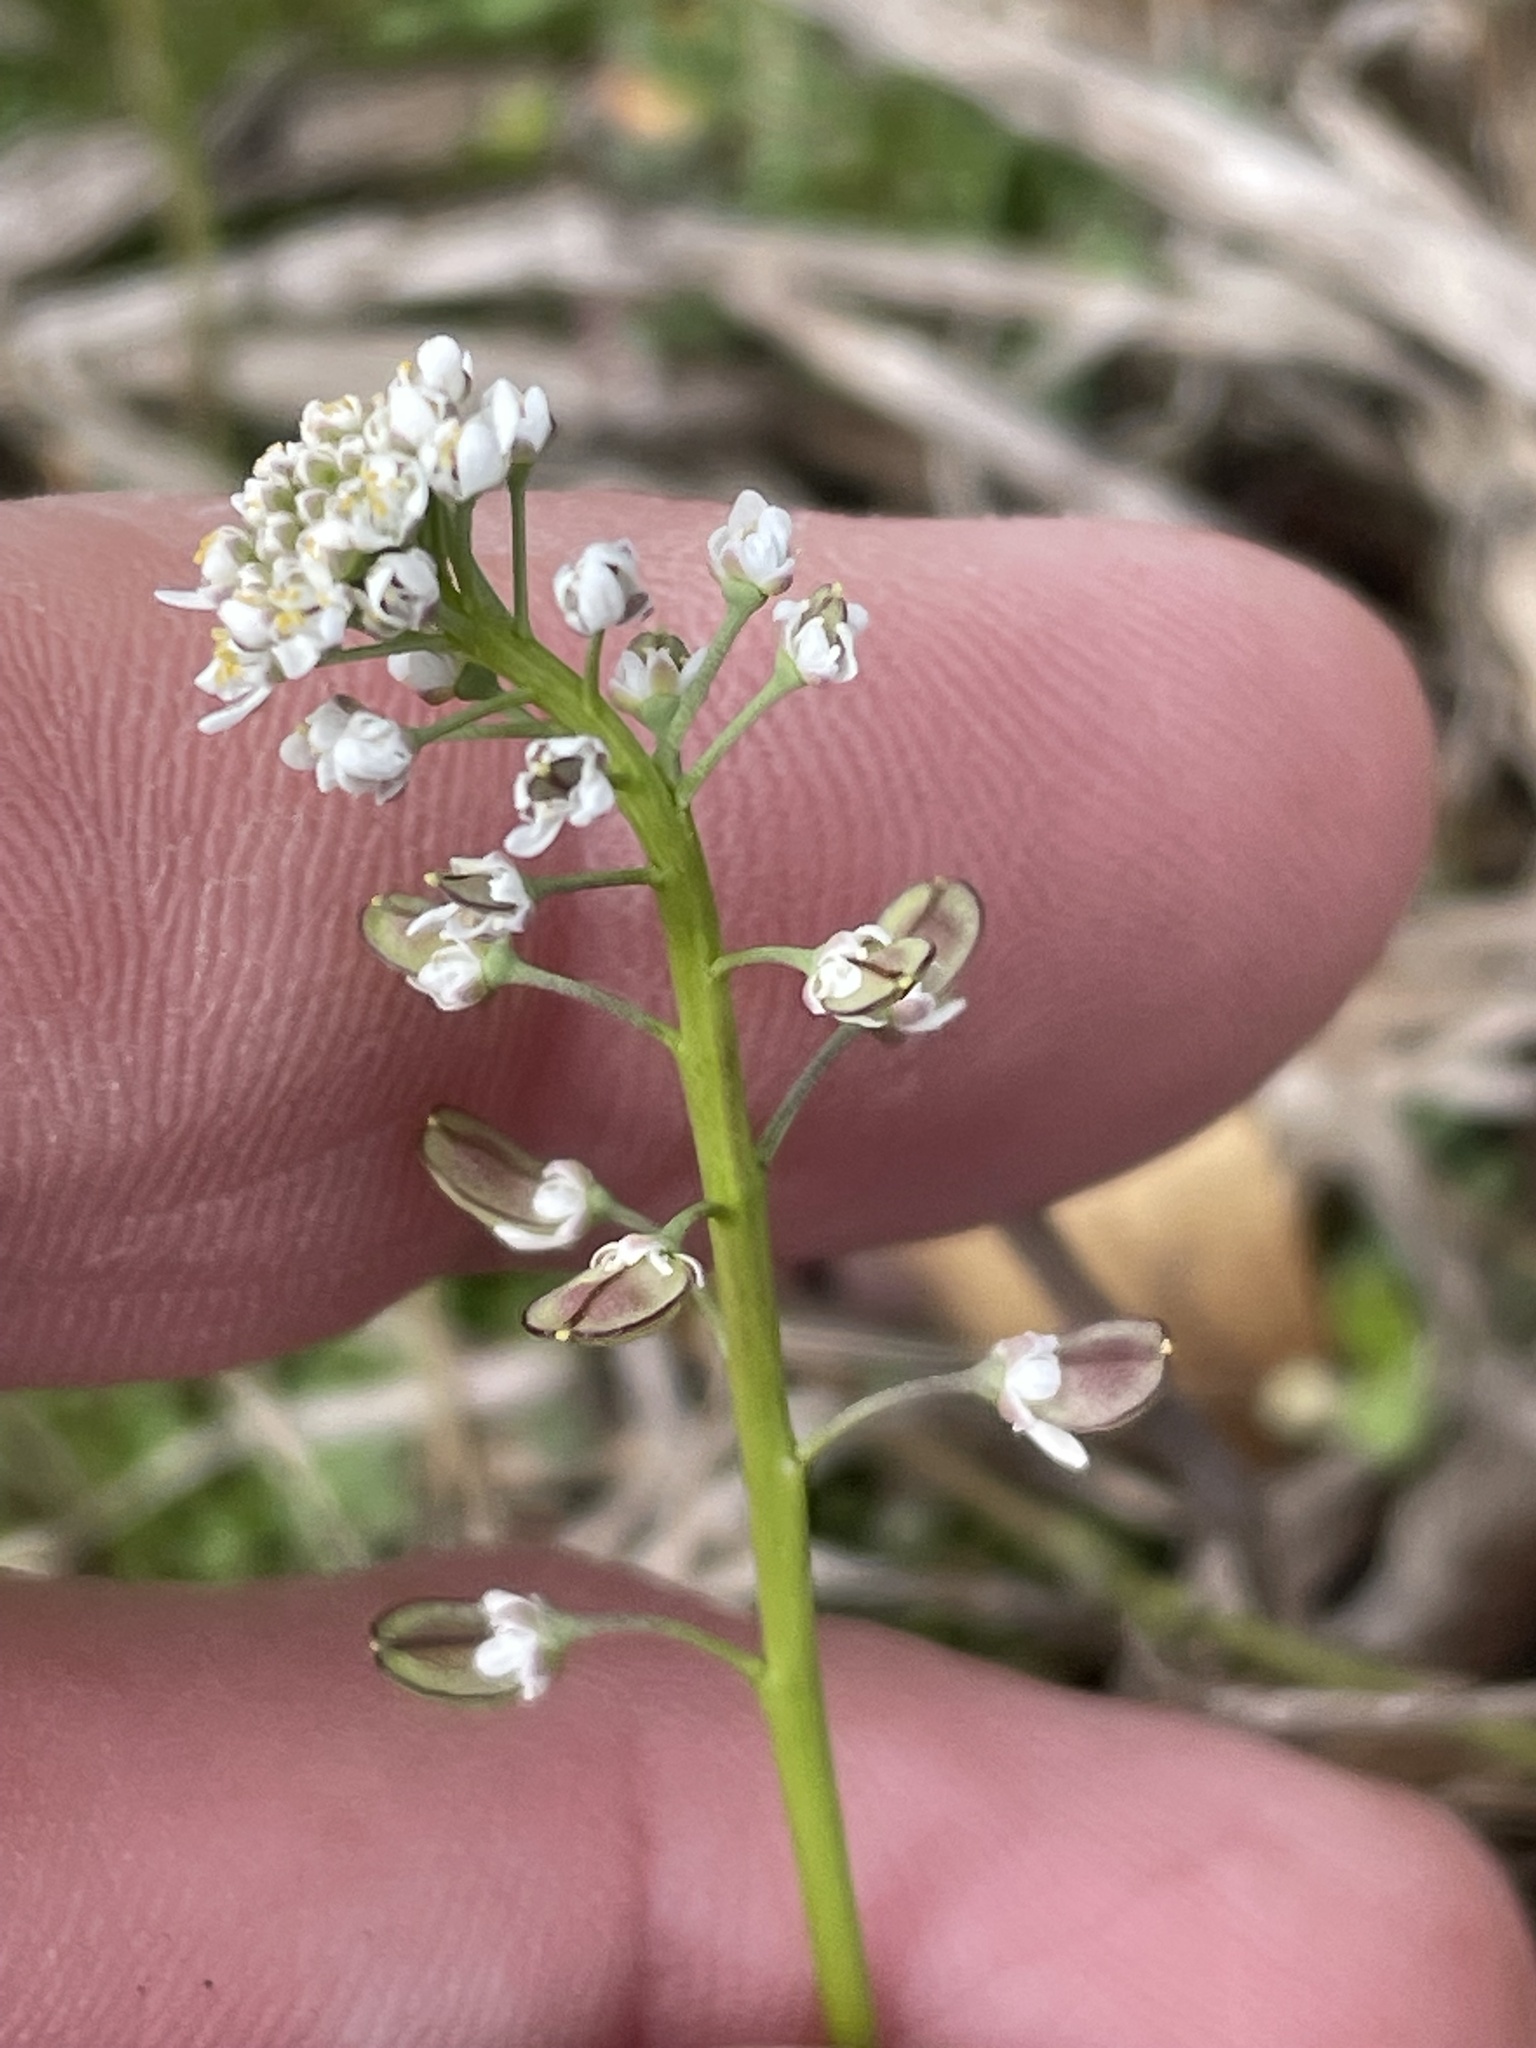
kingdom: Plantae
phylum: Tracheophyta
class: Magnoliopsida
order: Brassicales
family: Brassicaceae
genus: Teesdalia
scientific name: Teesdalia nudicaulis
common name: Shepherd's cress
